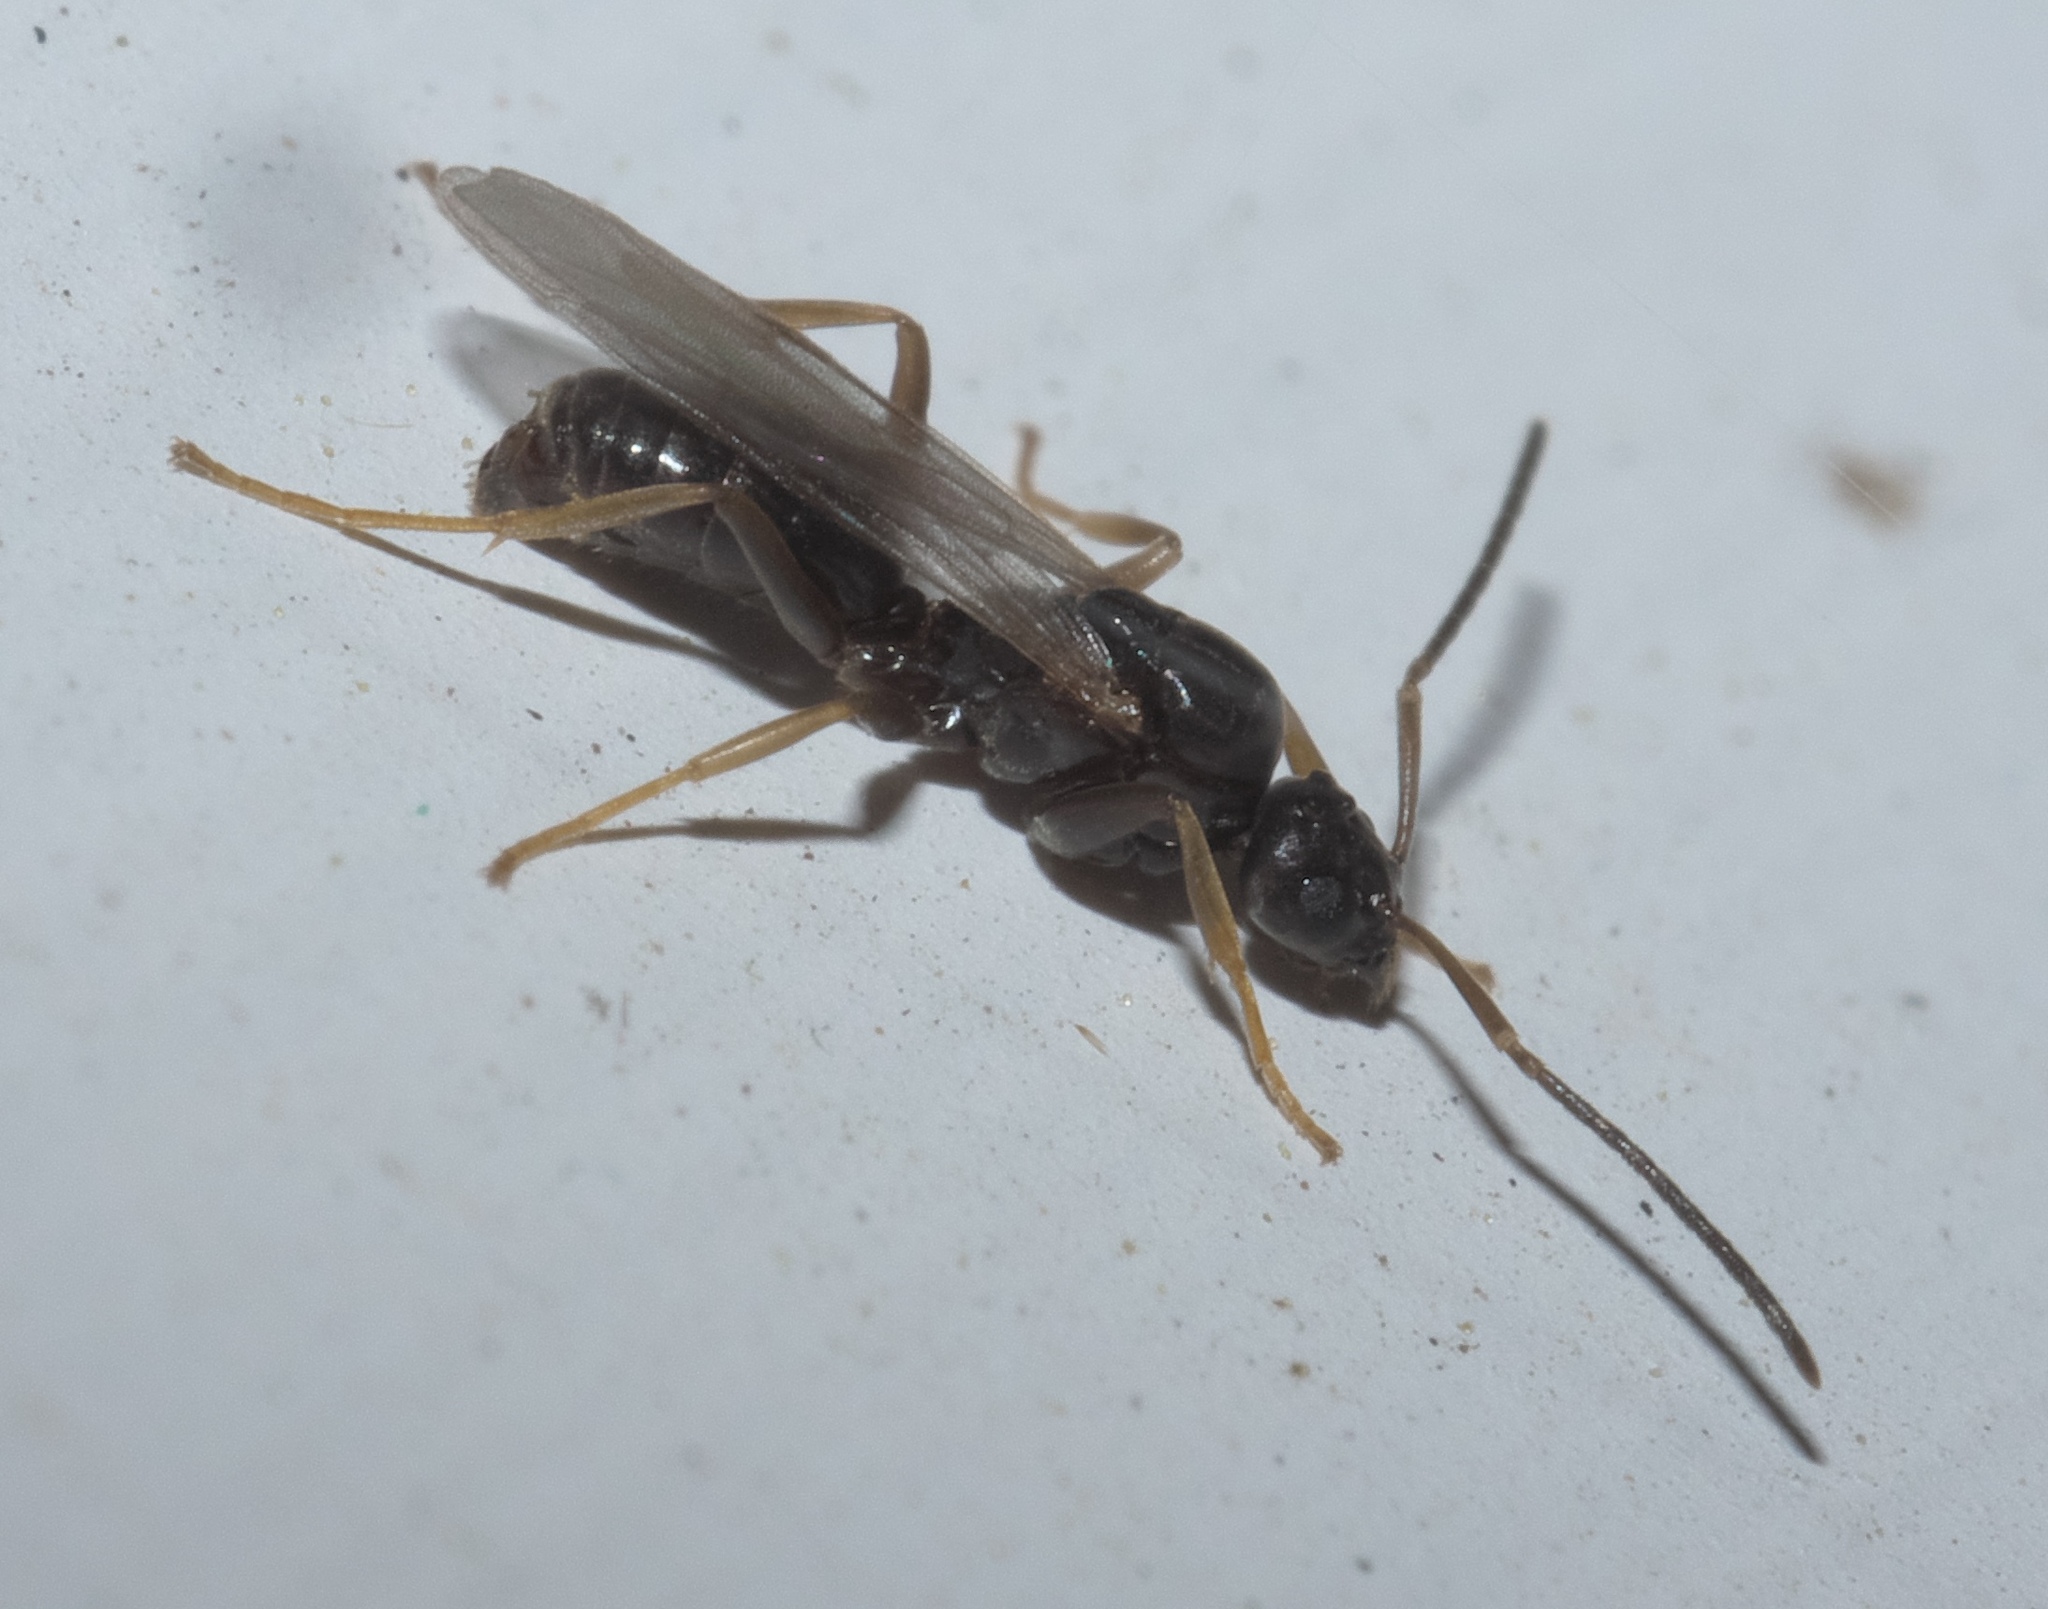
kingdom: Animalia
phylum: Arthropoda
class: Insecta
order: Hymenoptera
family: Formicidae
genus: Tapinoma
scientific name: Tapinoma sessile
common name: Odorous house ant
